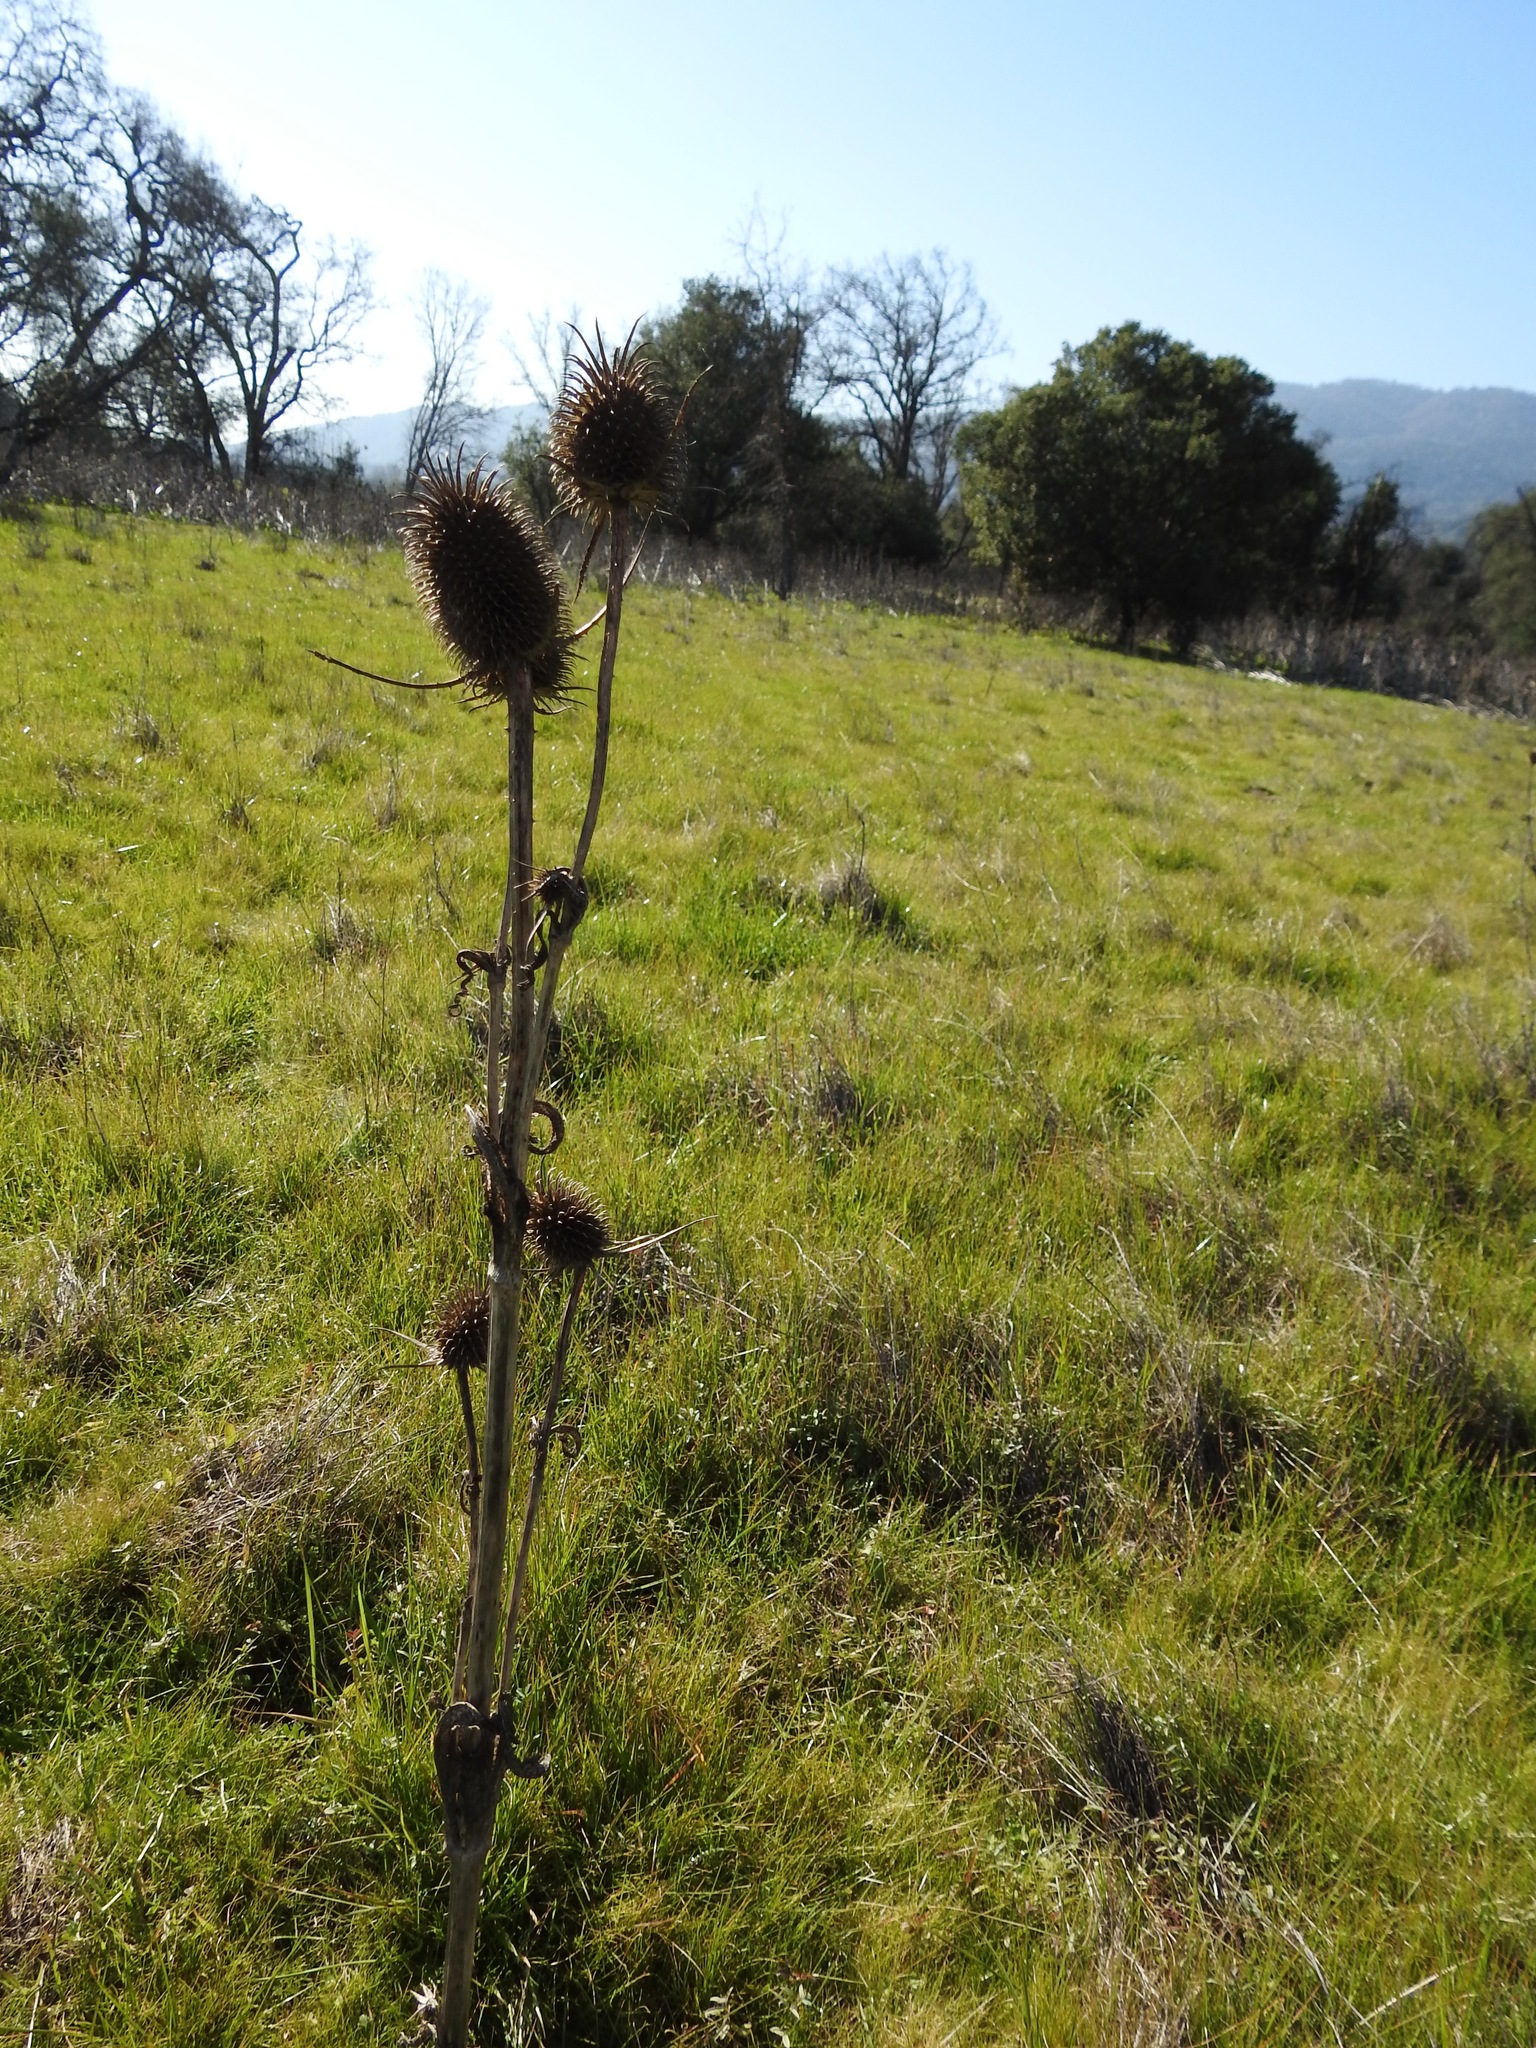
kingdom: Plantae
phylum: Tracheophyta
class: Magnoliopsida
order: Dipsacales
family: Caprifoliaceae
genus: Dipsacus
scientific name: Dipsacus sativus
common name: Fuller's teasel
